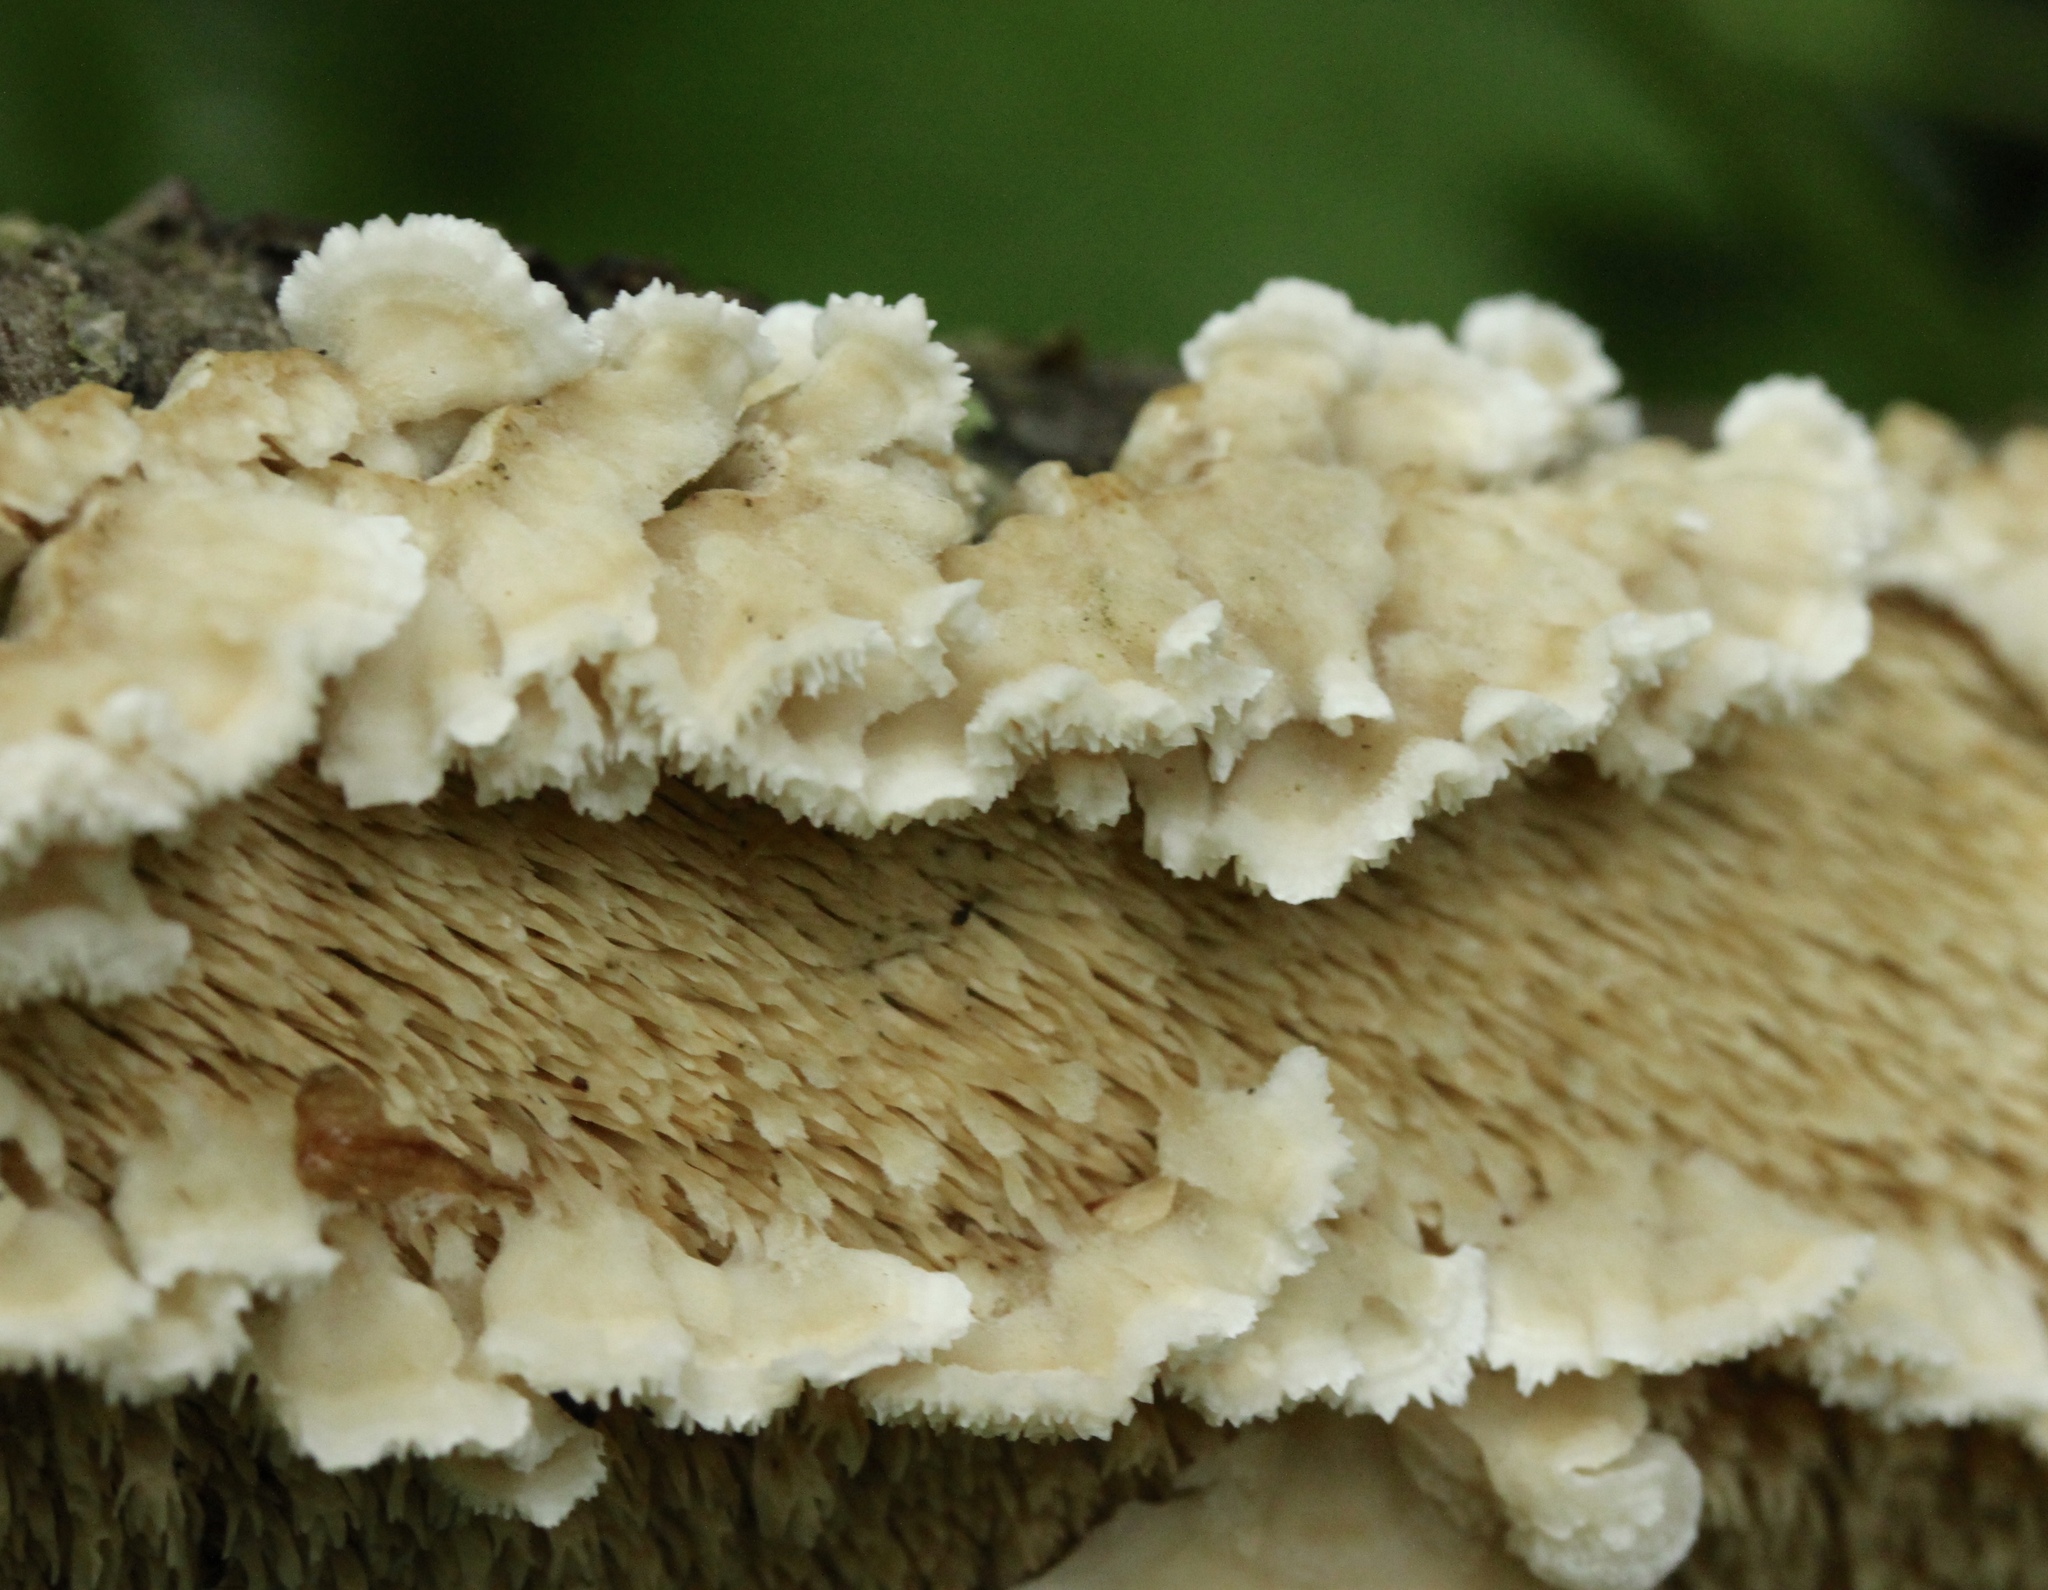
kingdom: Fungi
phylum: Basidiomycota
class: Agaricomycetes
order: Polyporales
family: Irpicaceae
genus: Irpex
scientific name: Irpex lacteus
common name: Milk-white toothed polypore
